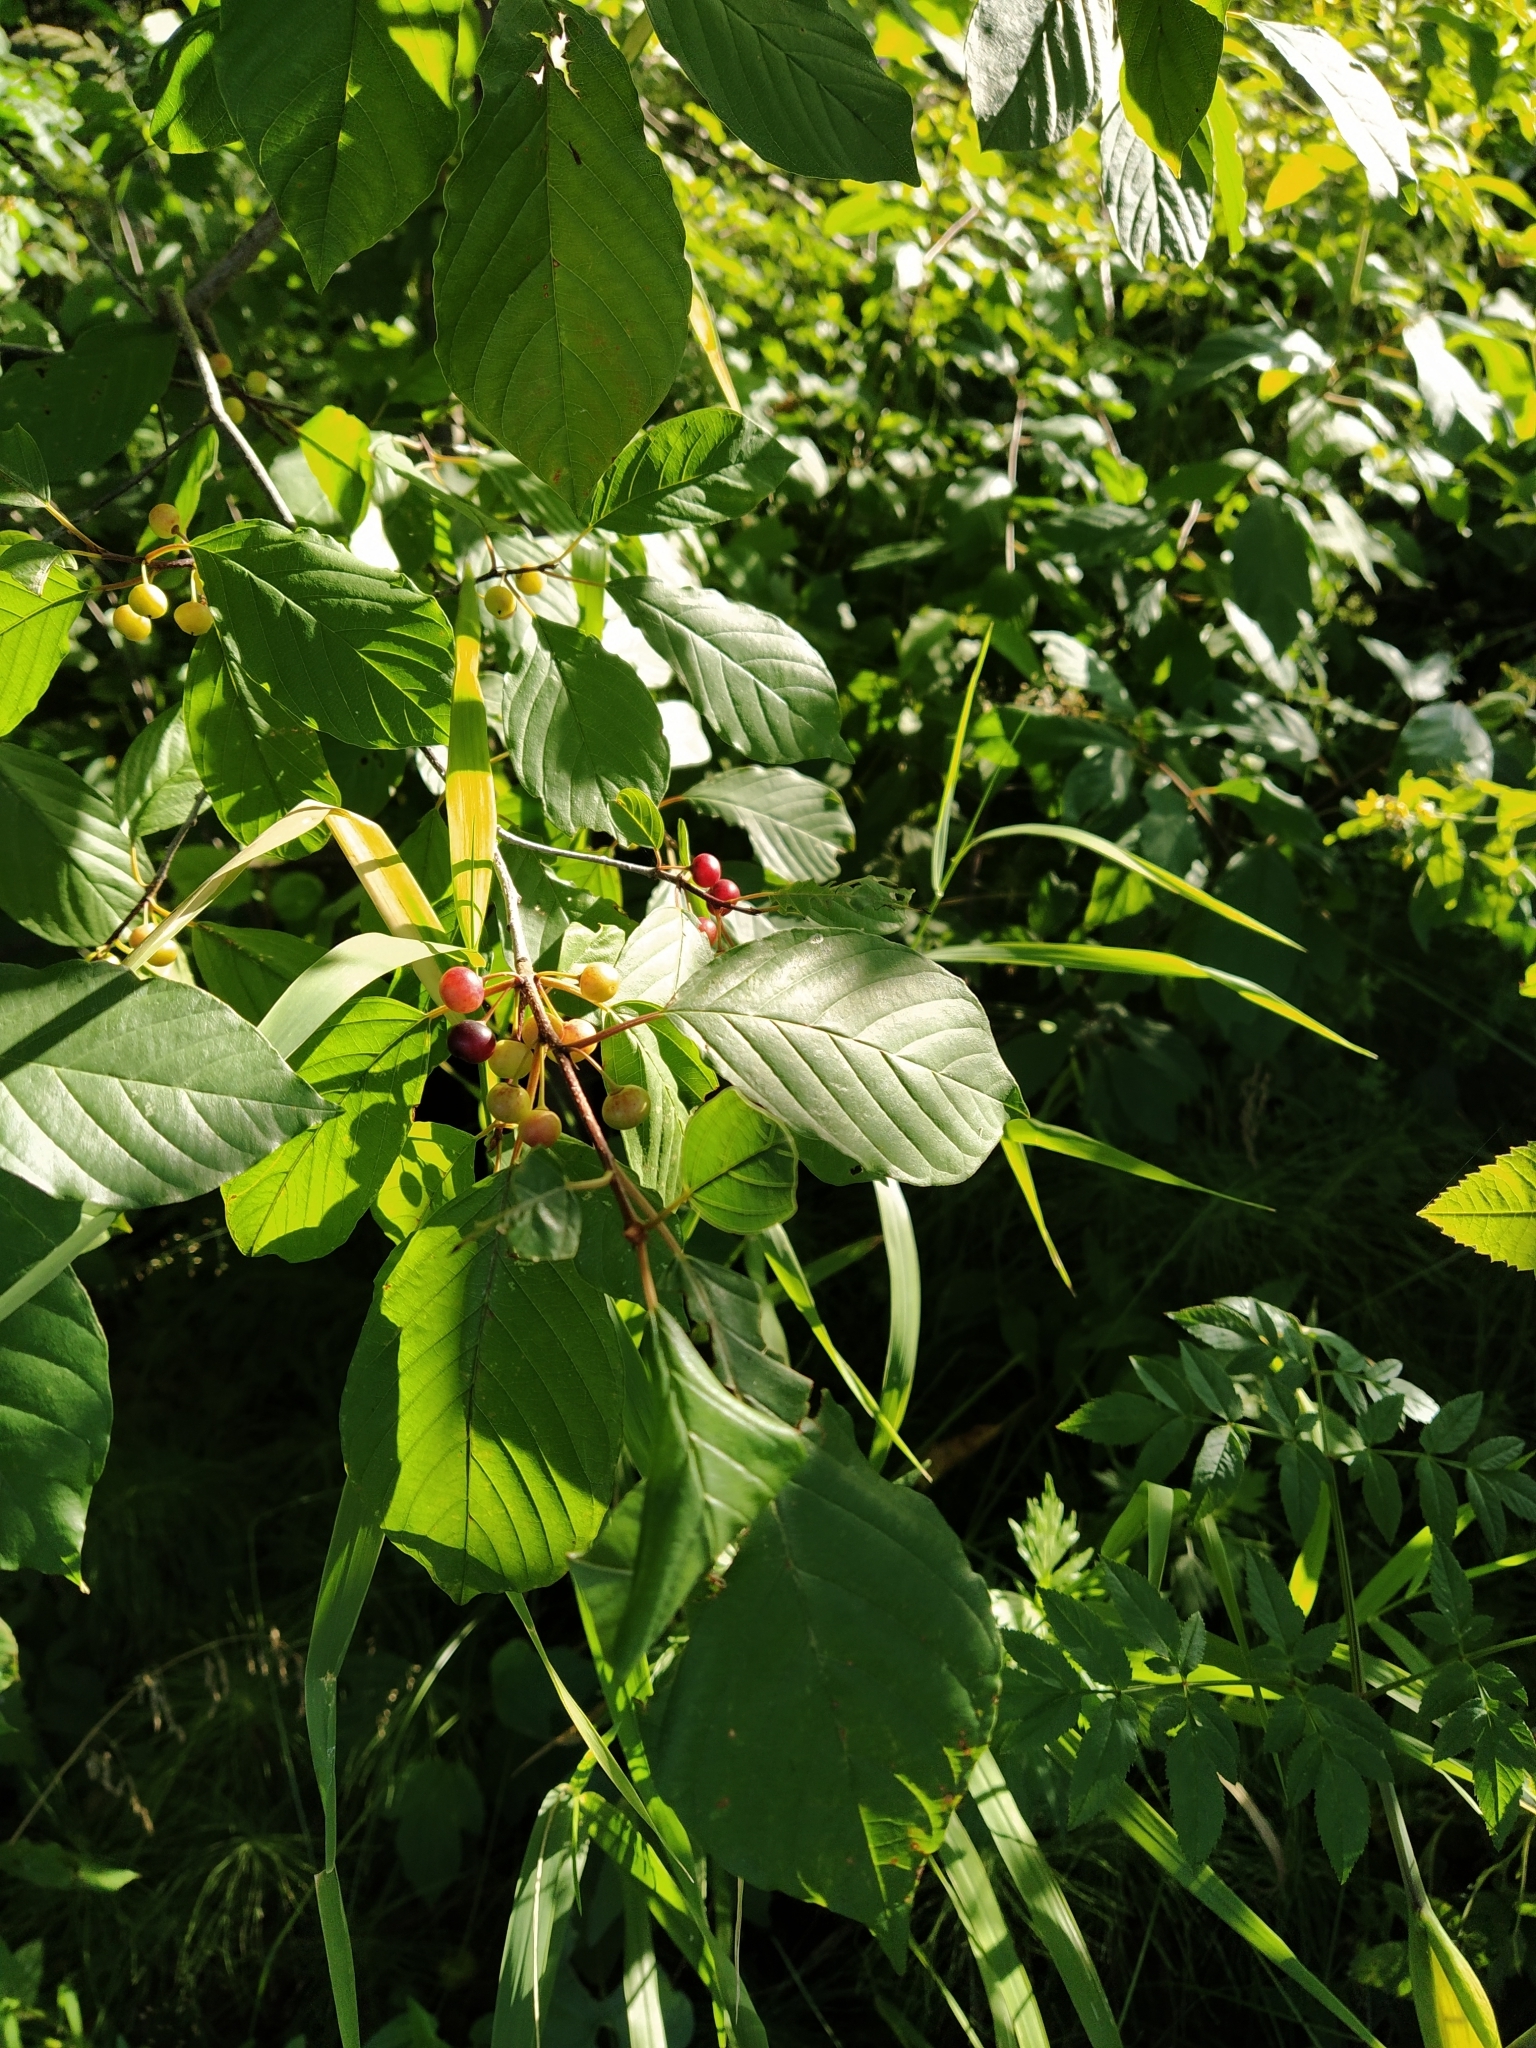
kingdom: Plantae
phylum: Tracheophyta
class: Magnoliopsida
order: Rosales
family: Rhamnaceae
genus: Frangula
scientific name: Frangula alnus
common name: Alder buckthorn
